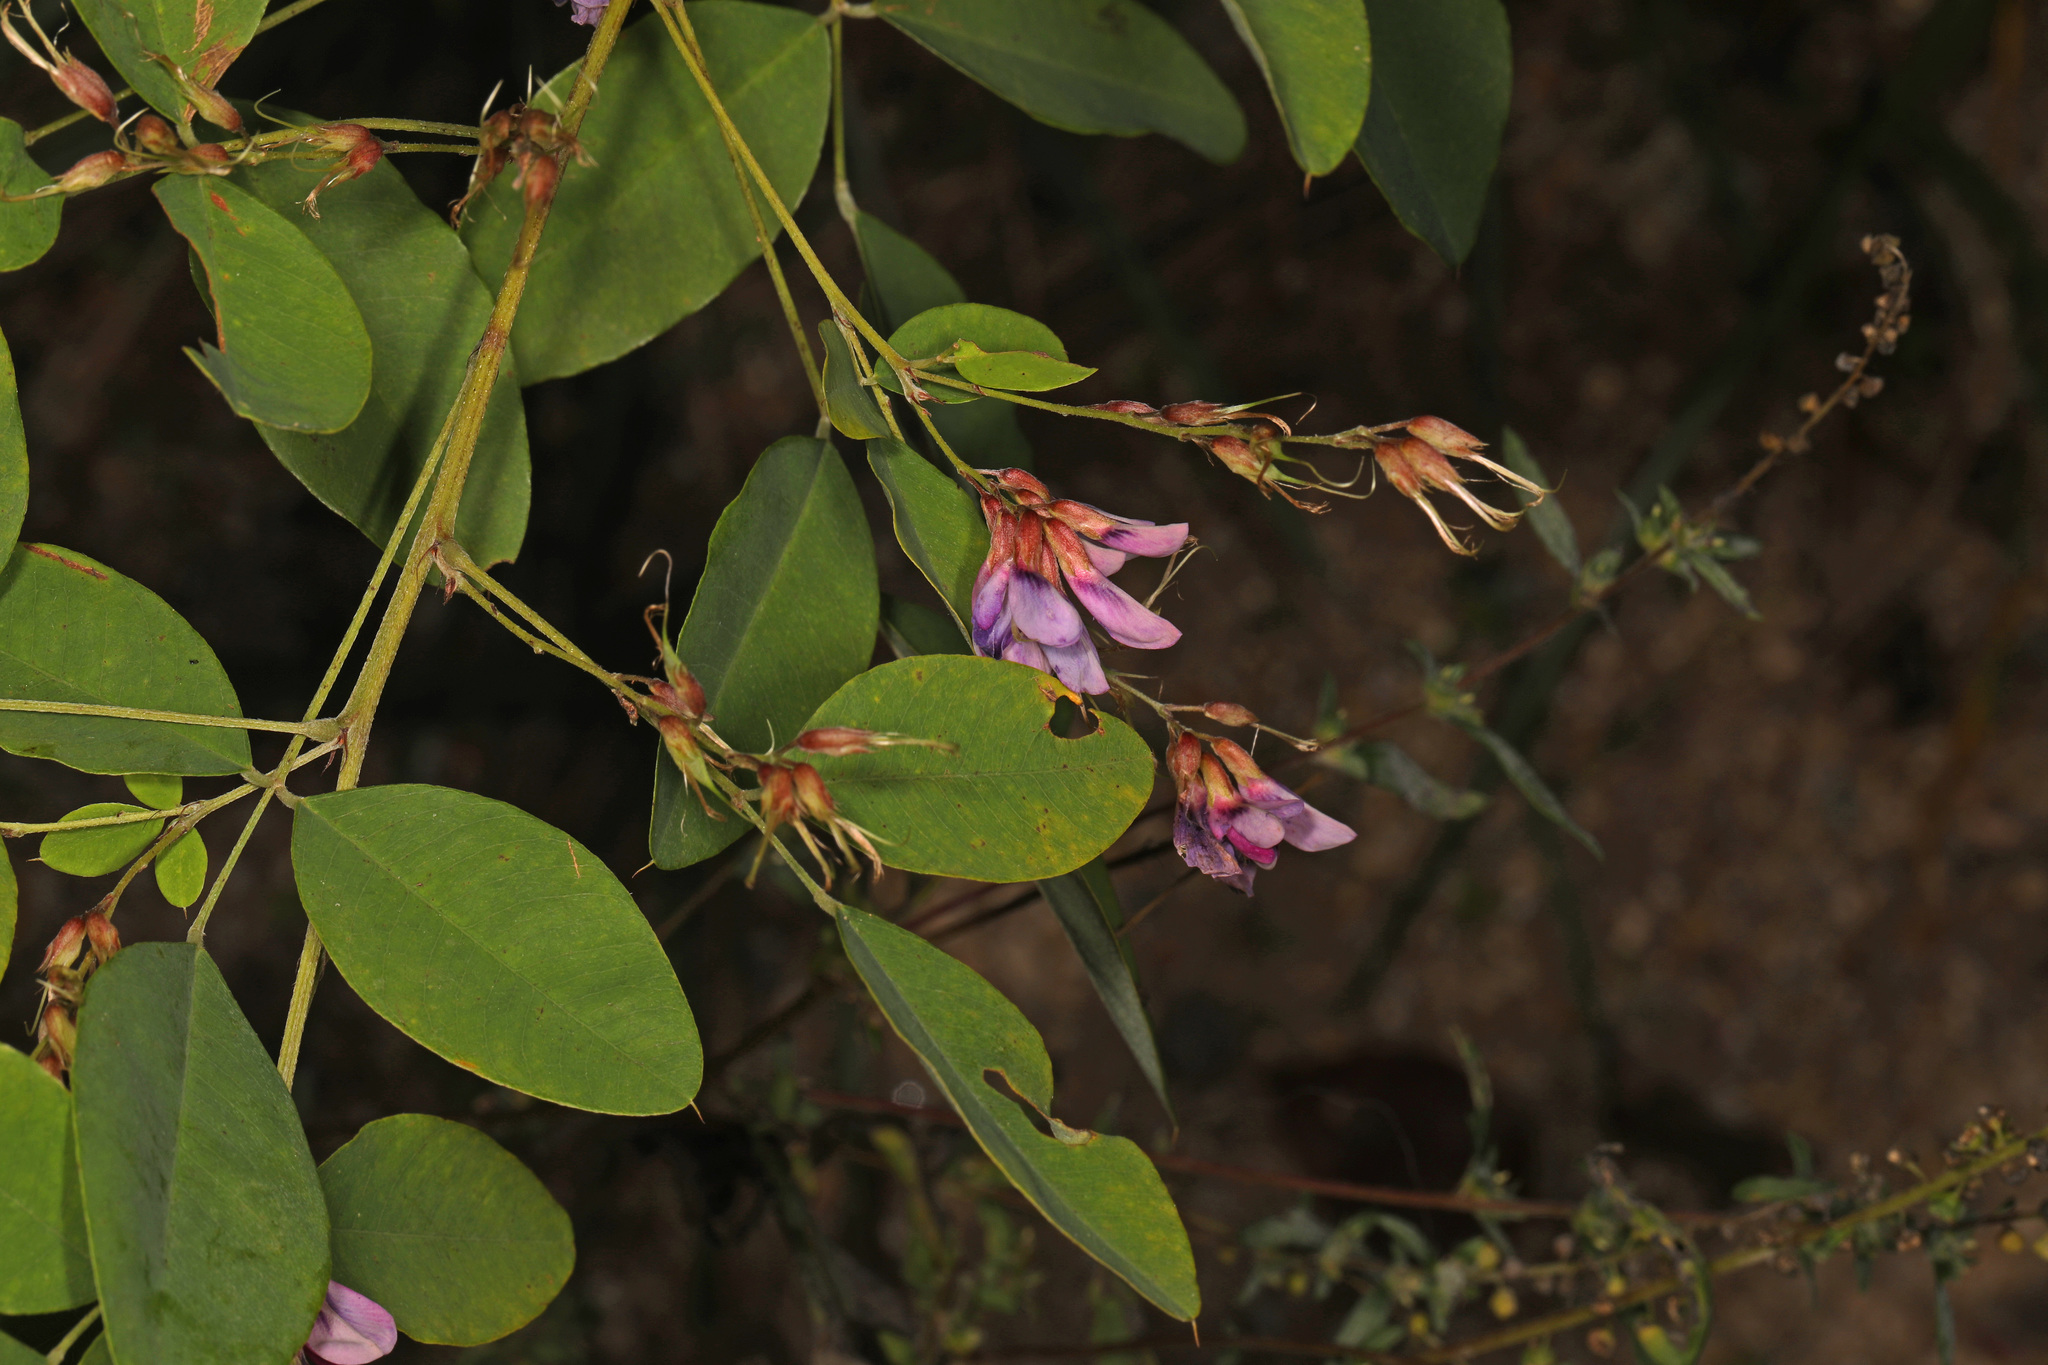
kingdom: Plantae
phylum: Tracheophyta
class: Magnoliopsida
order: Fabales
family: Fabaceae
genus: Lespedeza
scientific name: Lespedeza bicolor
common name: Shrub lespedeza
